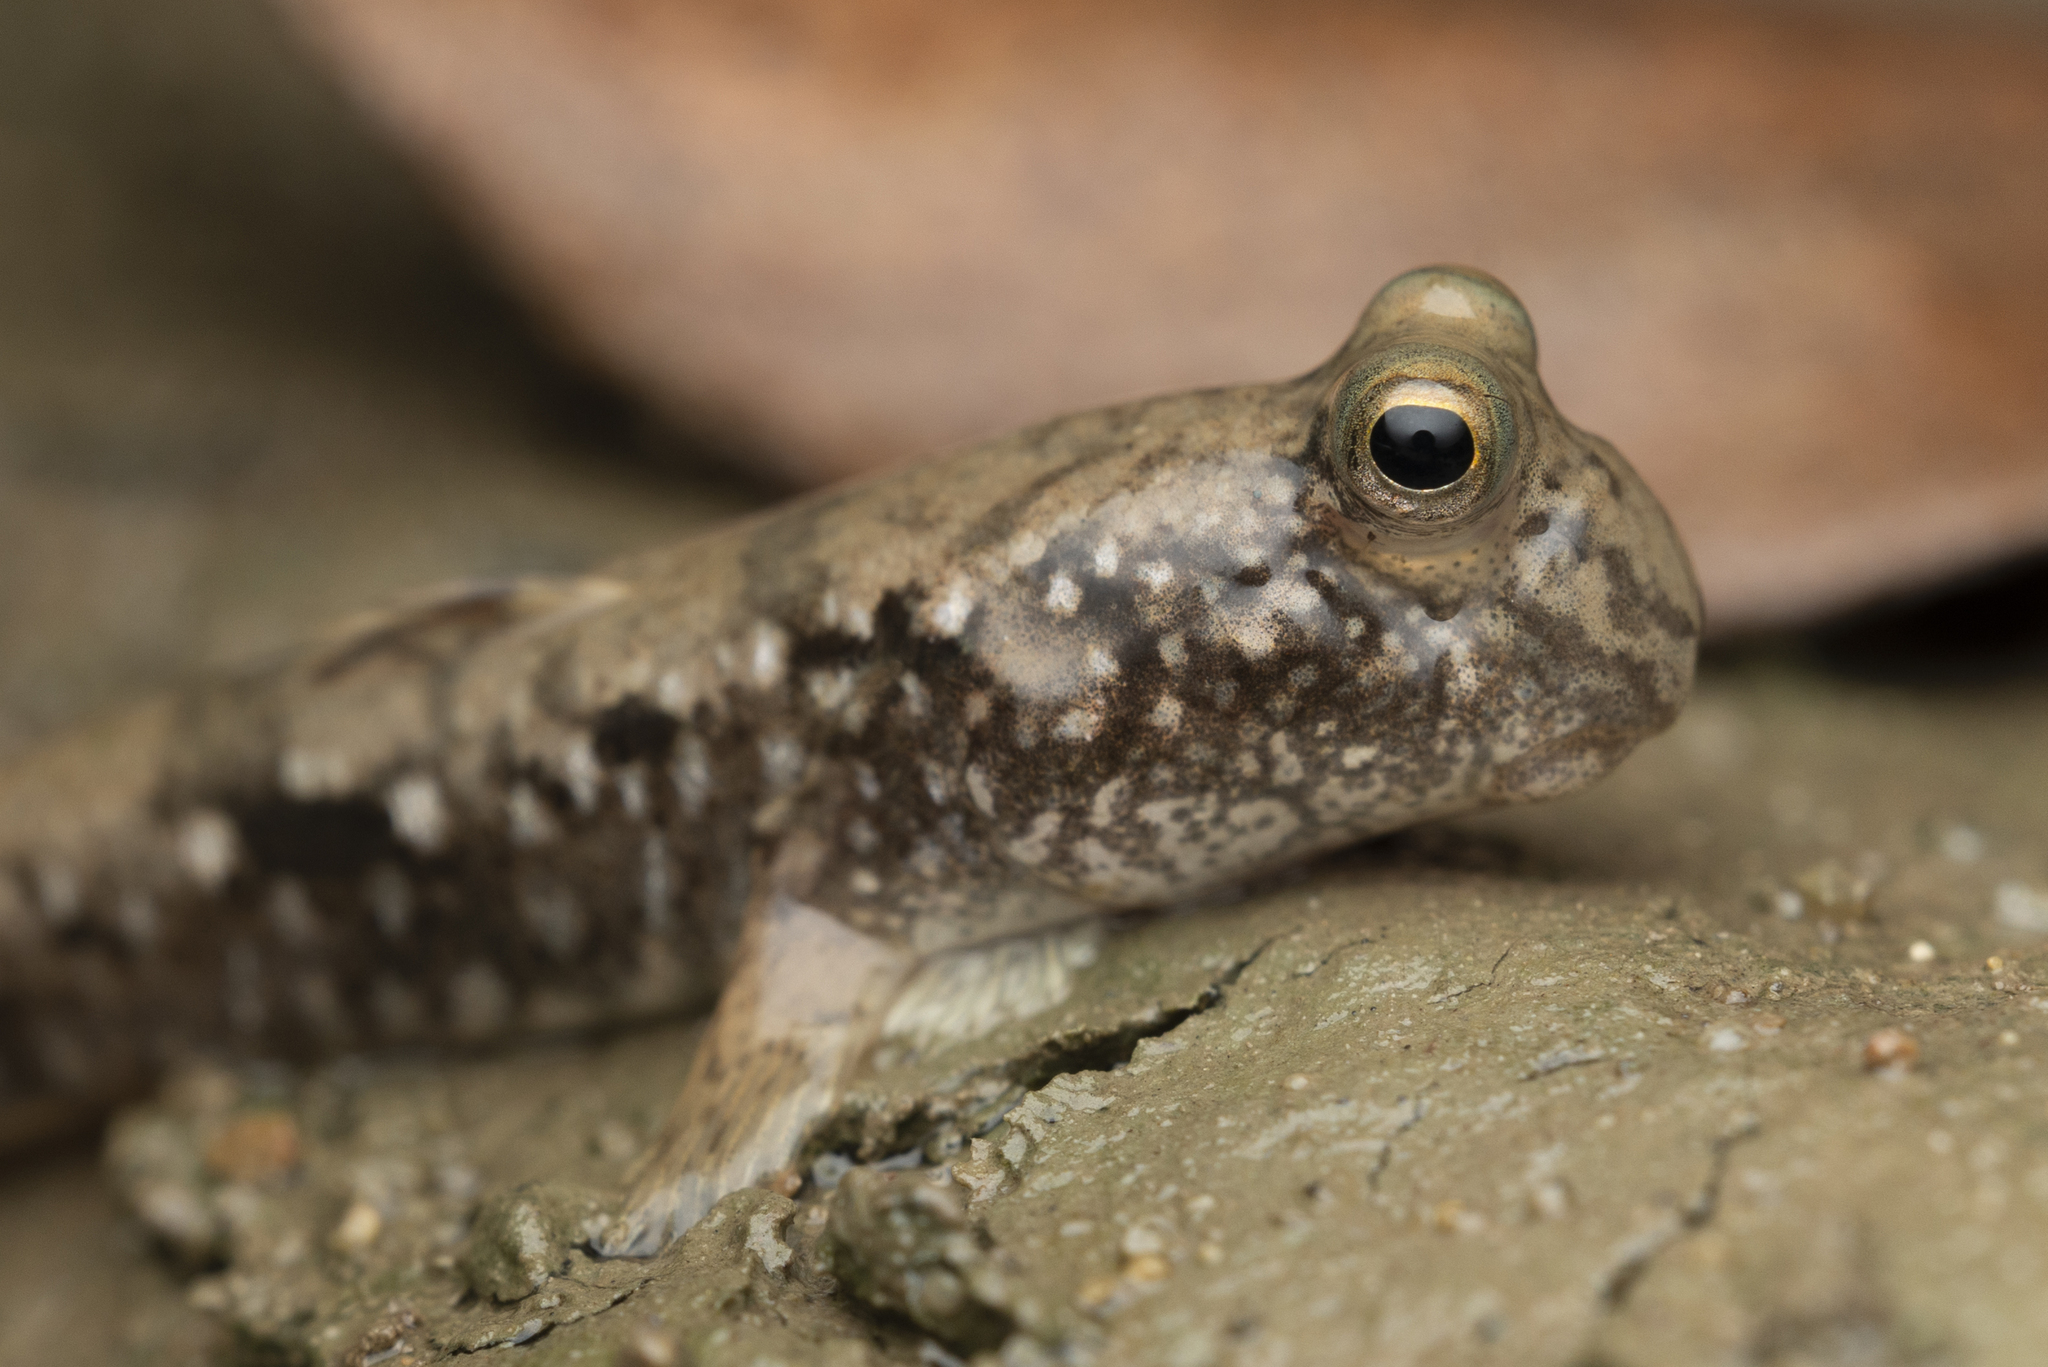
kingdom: Animalia
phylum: Chordata
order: Perciformes
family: Gobiidae
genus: Periophthalmus
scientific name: Periophthalmus modestus
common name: Black goby
